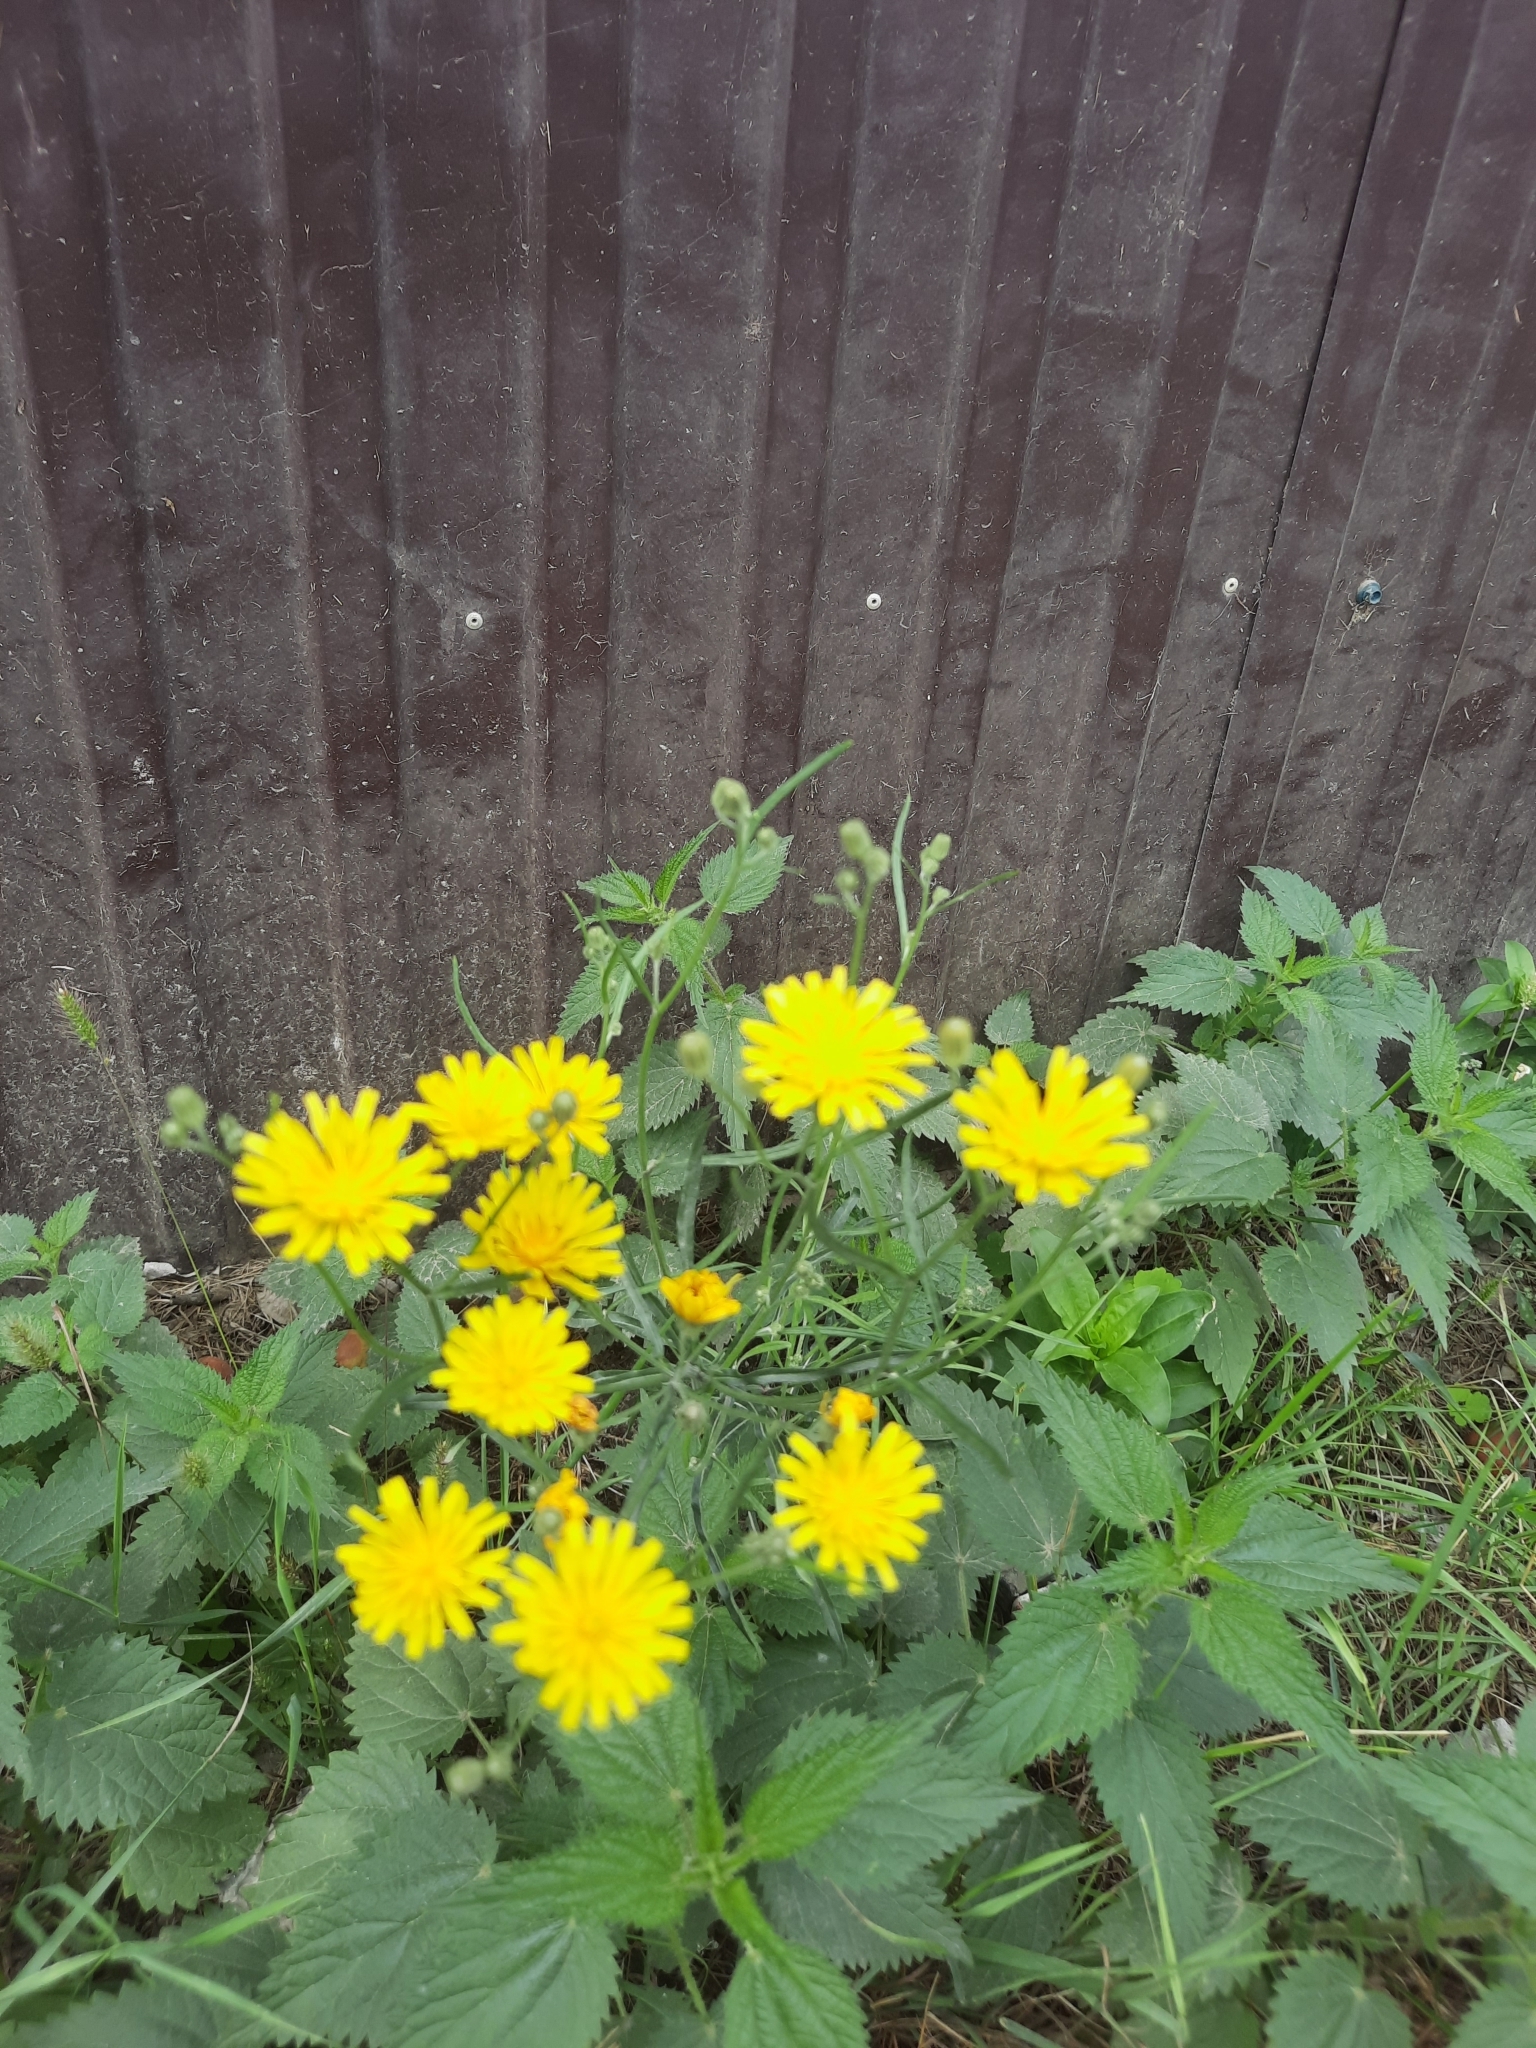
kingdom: Plantae
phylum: Tracheophyta
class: Magnoliopsida
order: Asterales
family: Asteraceae
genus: Crepis
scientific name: Crepis tectorum
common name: Narrow-leaved hawk's-beard
